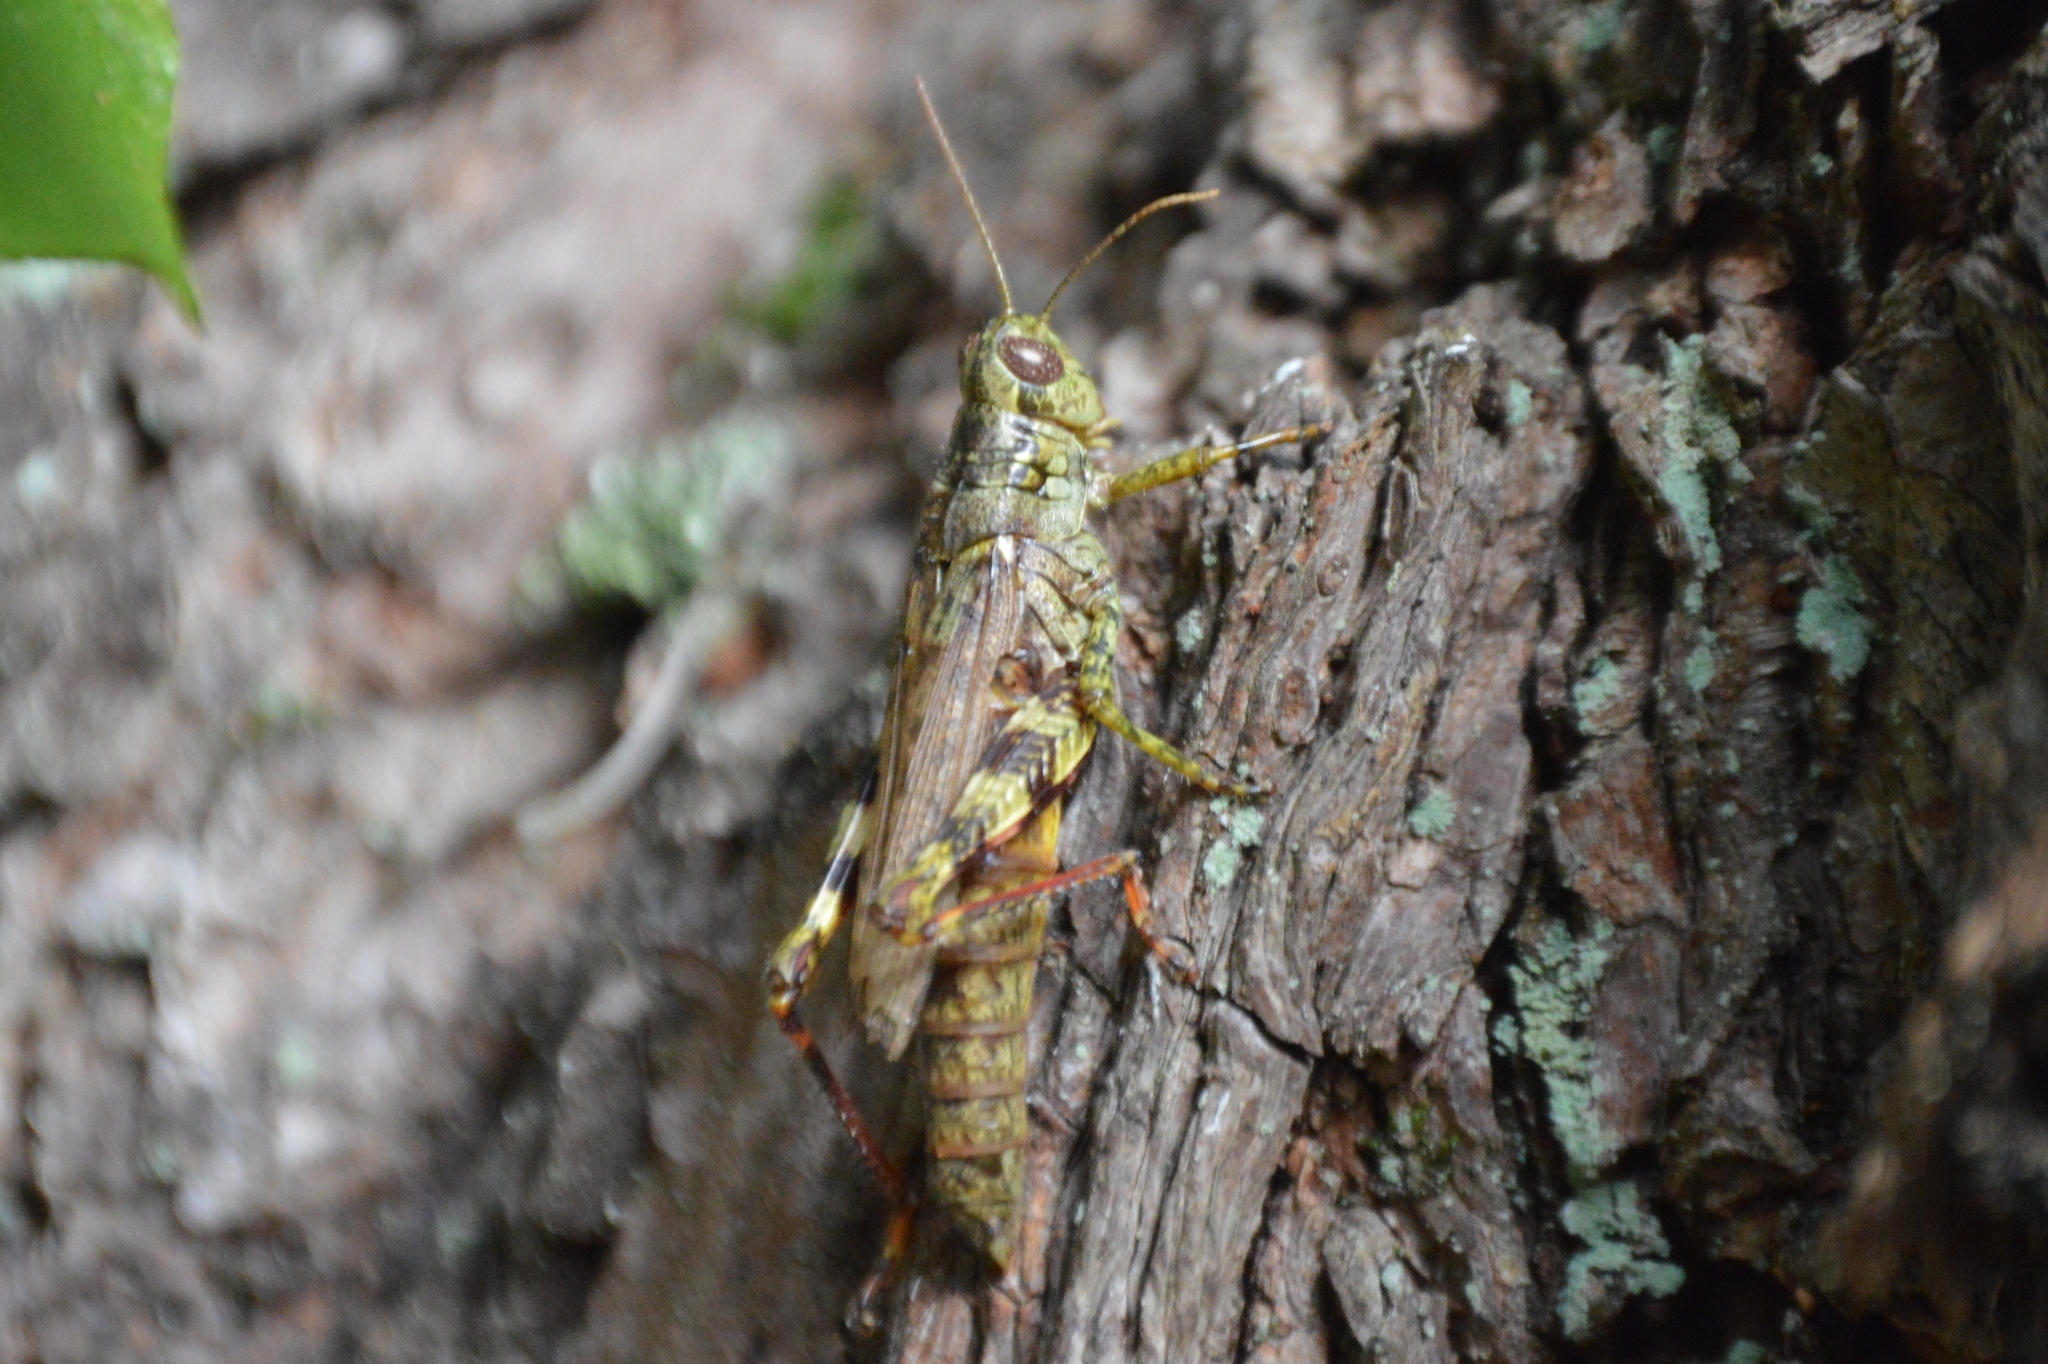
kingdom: Animalia
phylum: Arthropoda
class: Insecta
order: Orthoptera
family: Acrididae
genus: Melanoplus
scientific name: Melanoplus punctulatus
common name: Pine-tree spur-throat grasshopper
